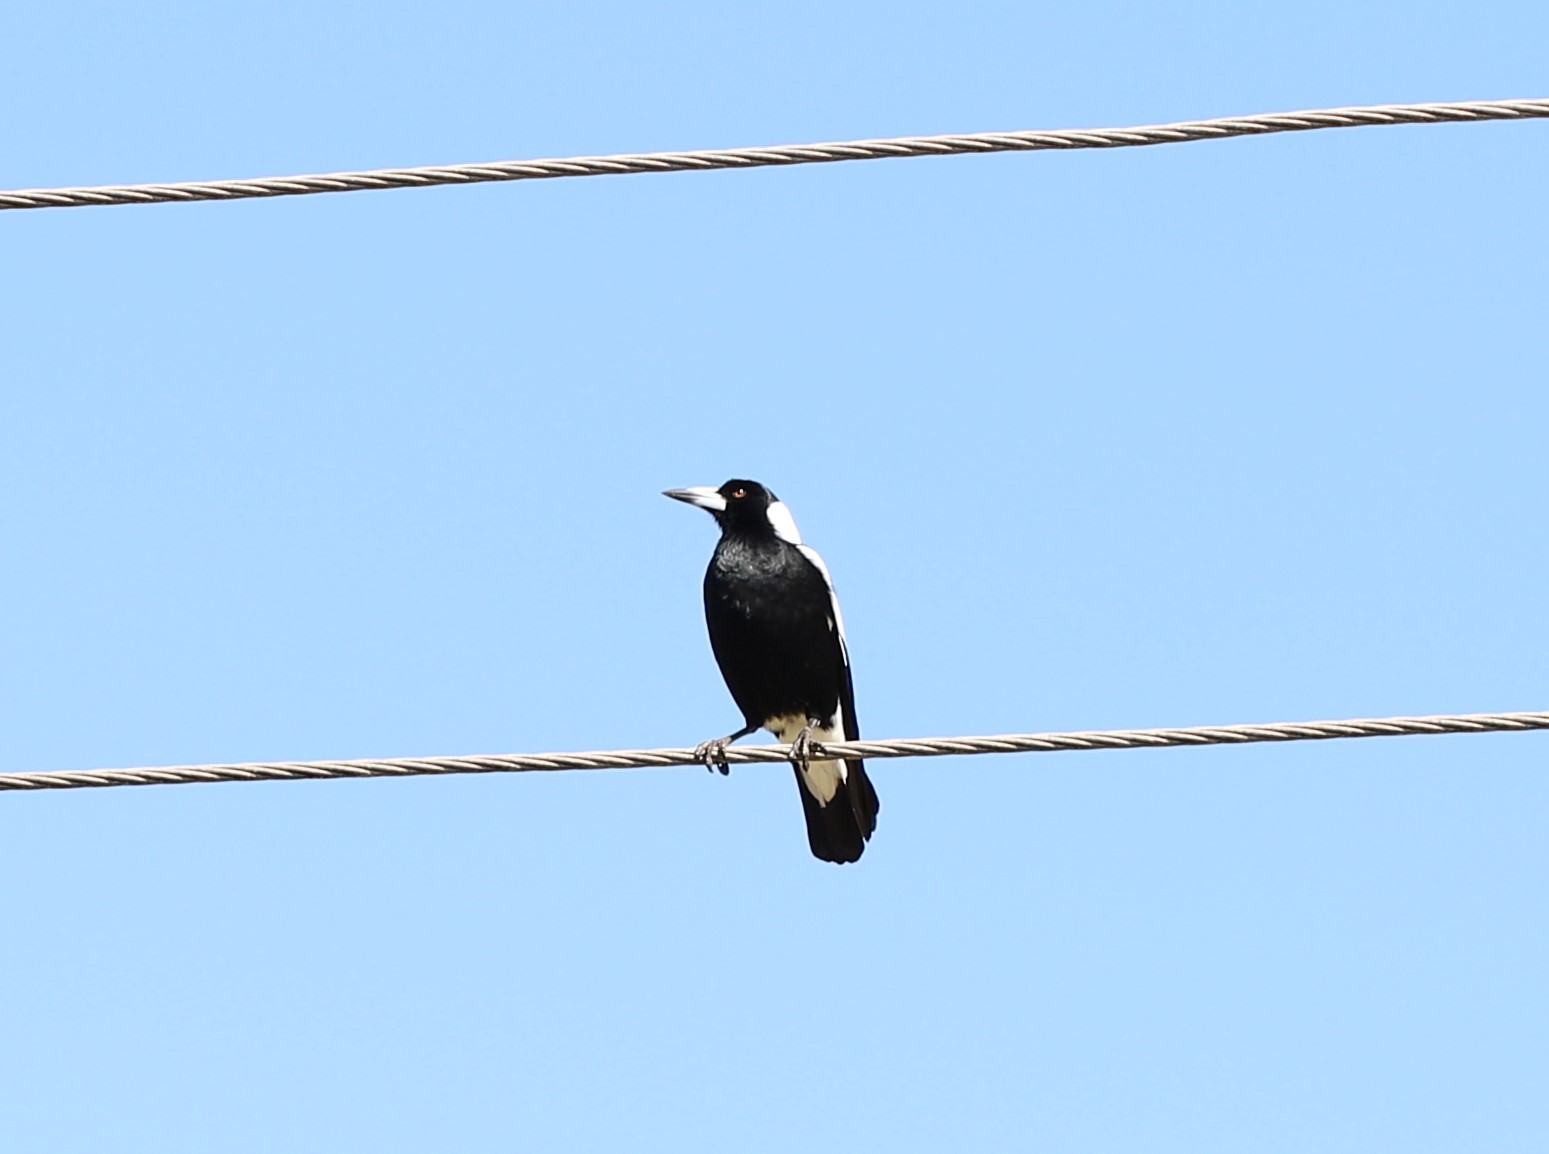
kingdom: Animalia
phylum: Chordata
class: Aves
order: Passeriformes
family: Cracticidae
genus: Gymnorhina
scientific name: Gymnorhina tibicen
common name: Australian magpie
